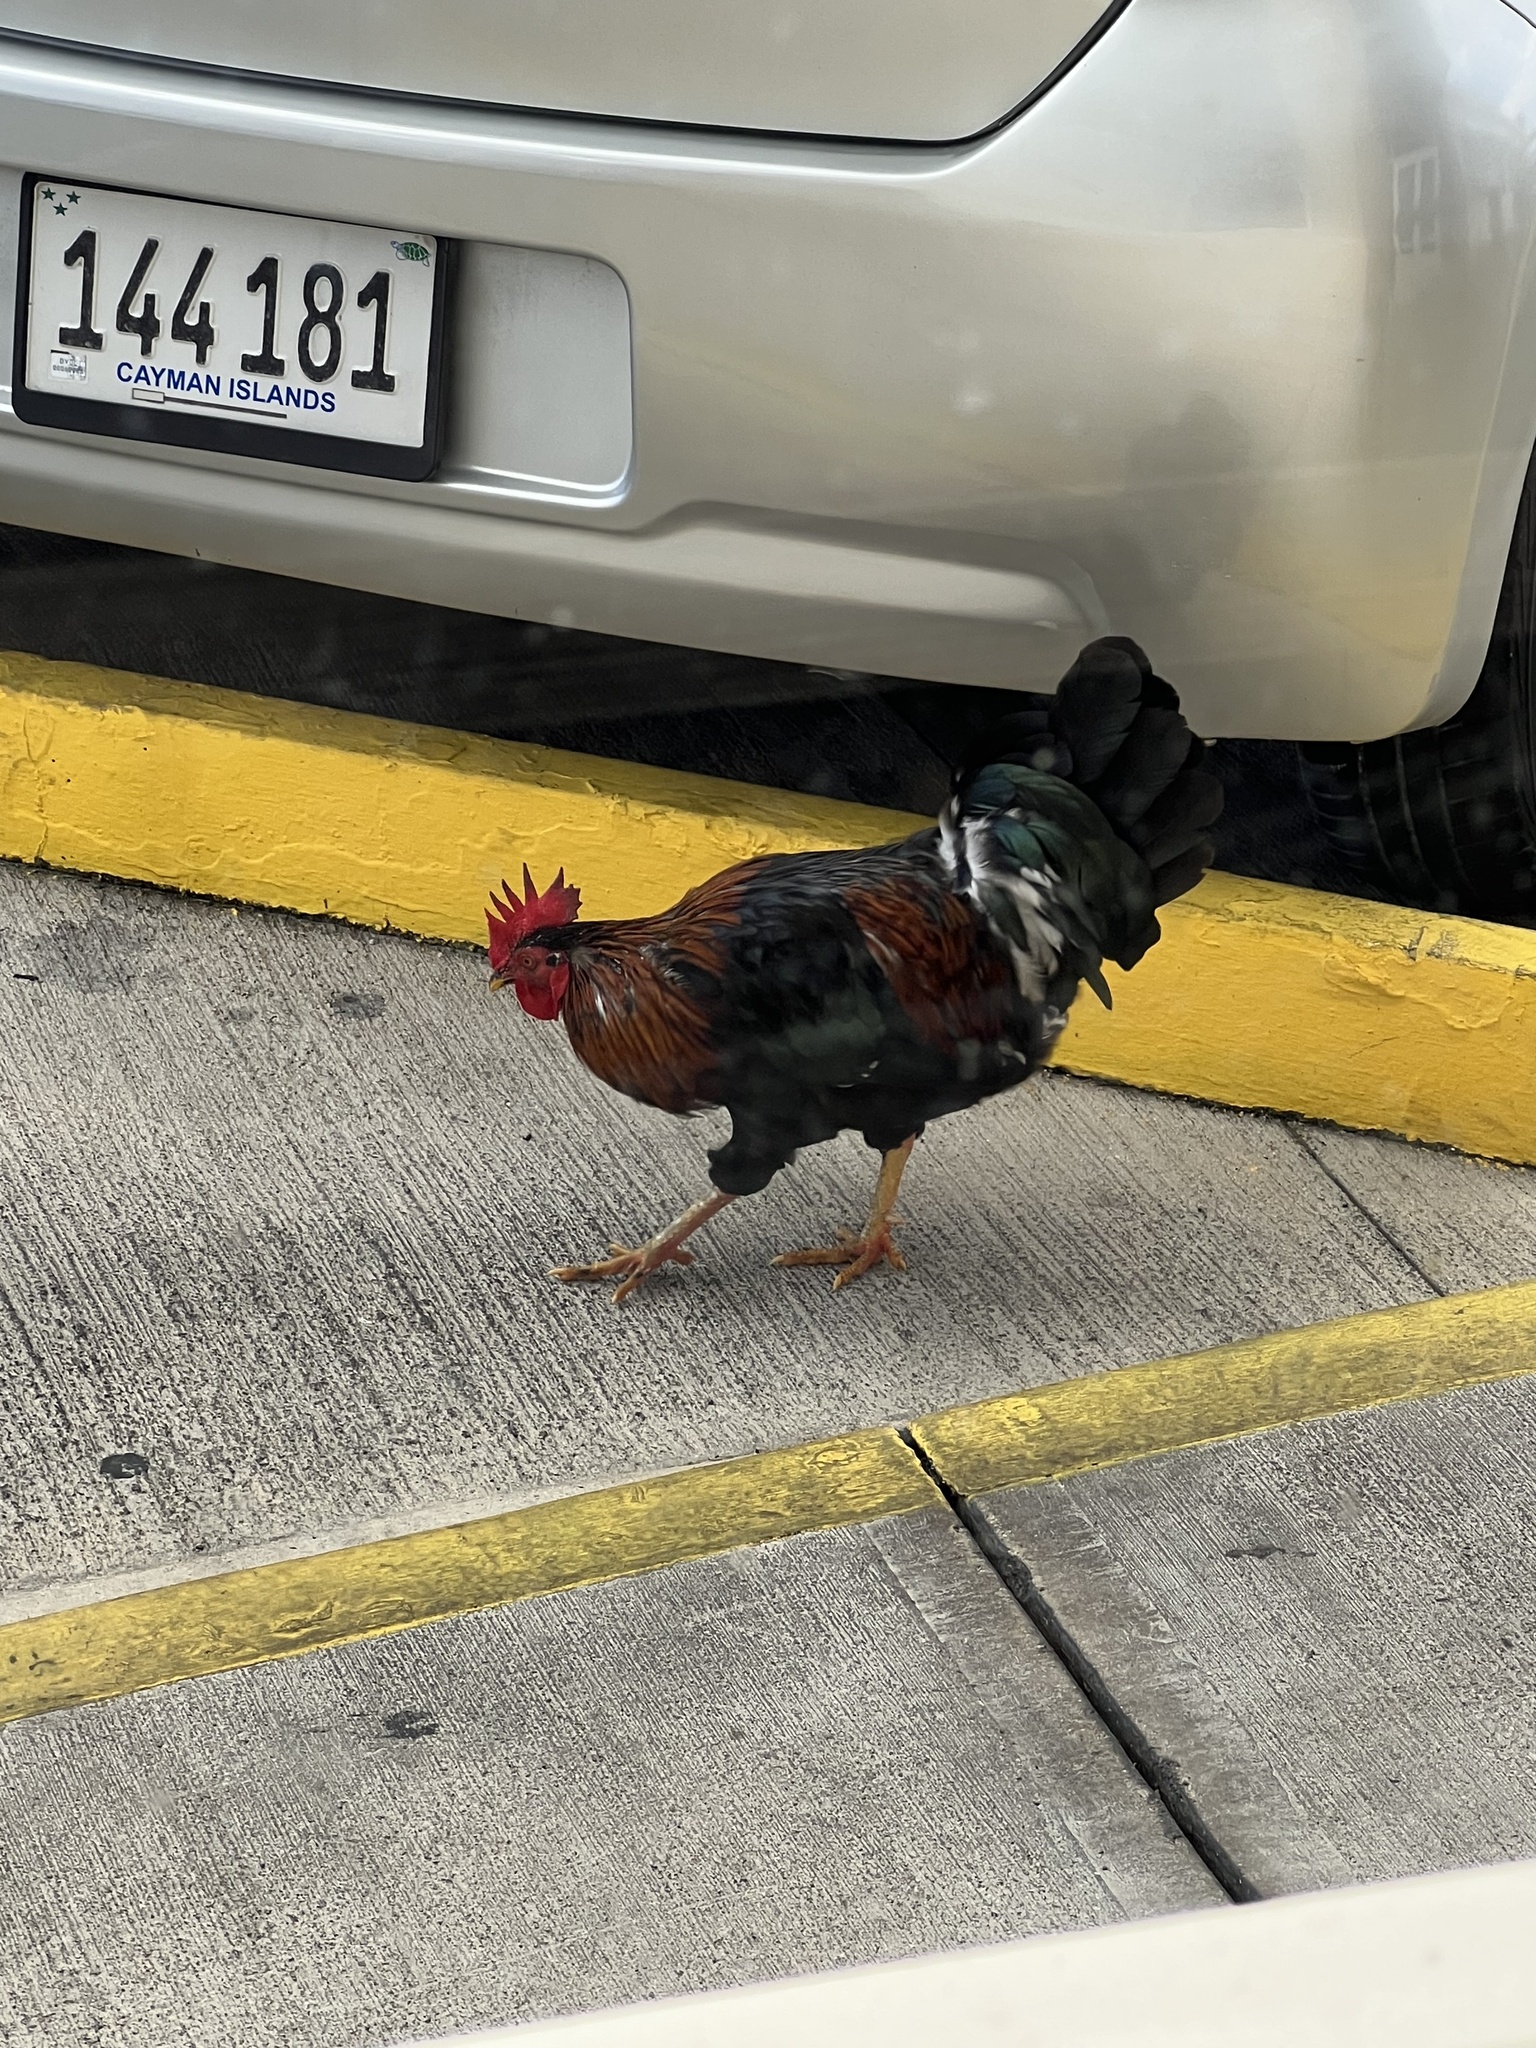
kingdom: Animalia
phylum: Chordata
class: Aves
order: Galliformes
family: Phasianidae
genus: Gallus
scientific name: Gallus gallus
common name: Red junglefowl
